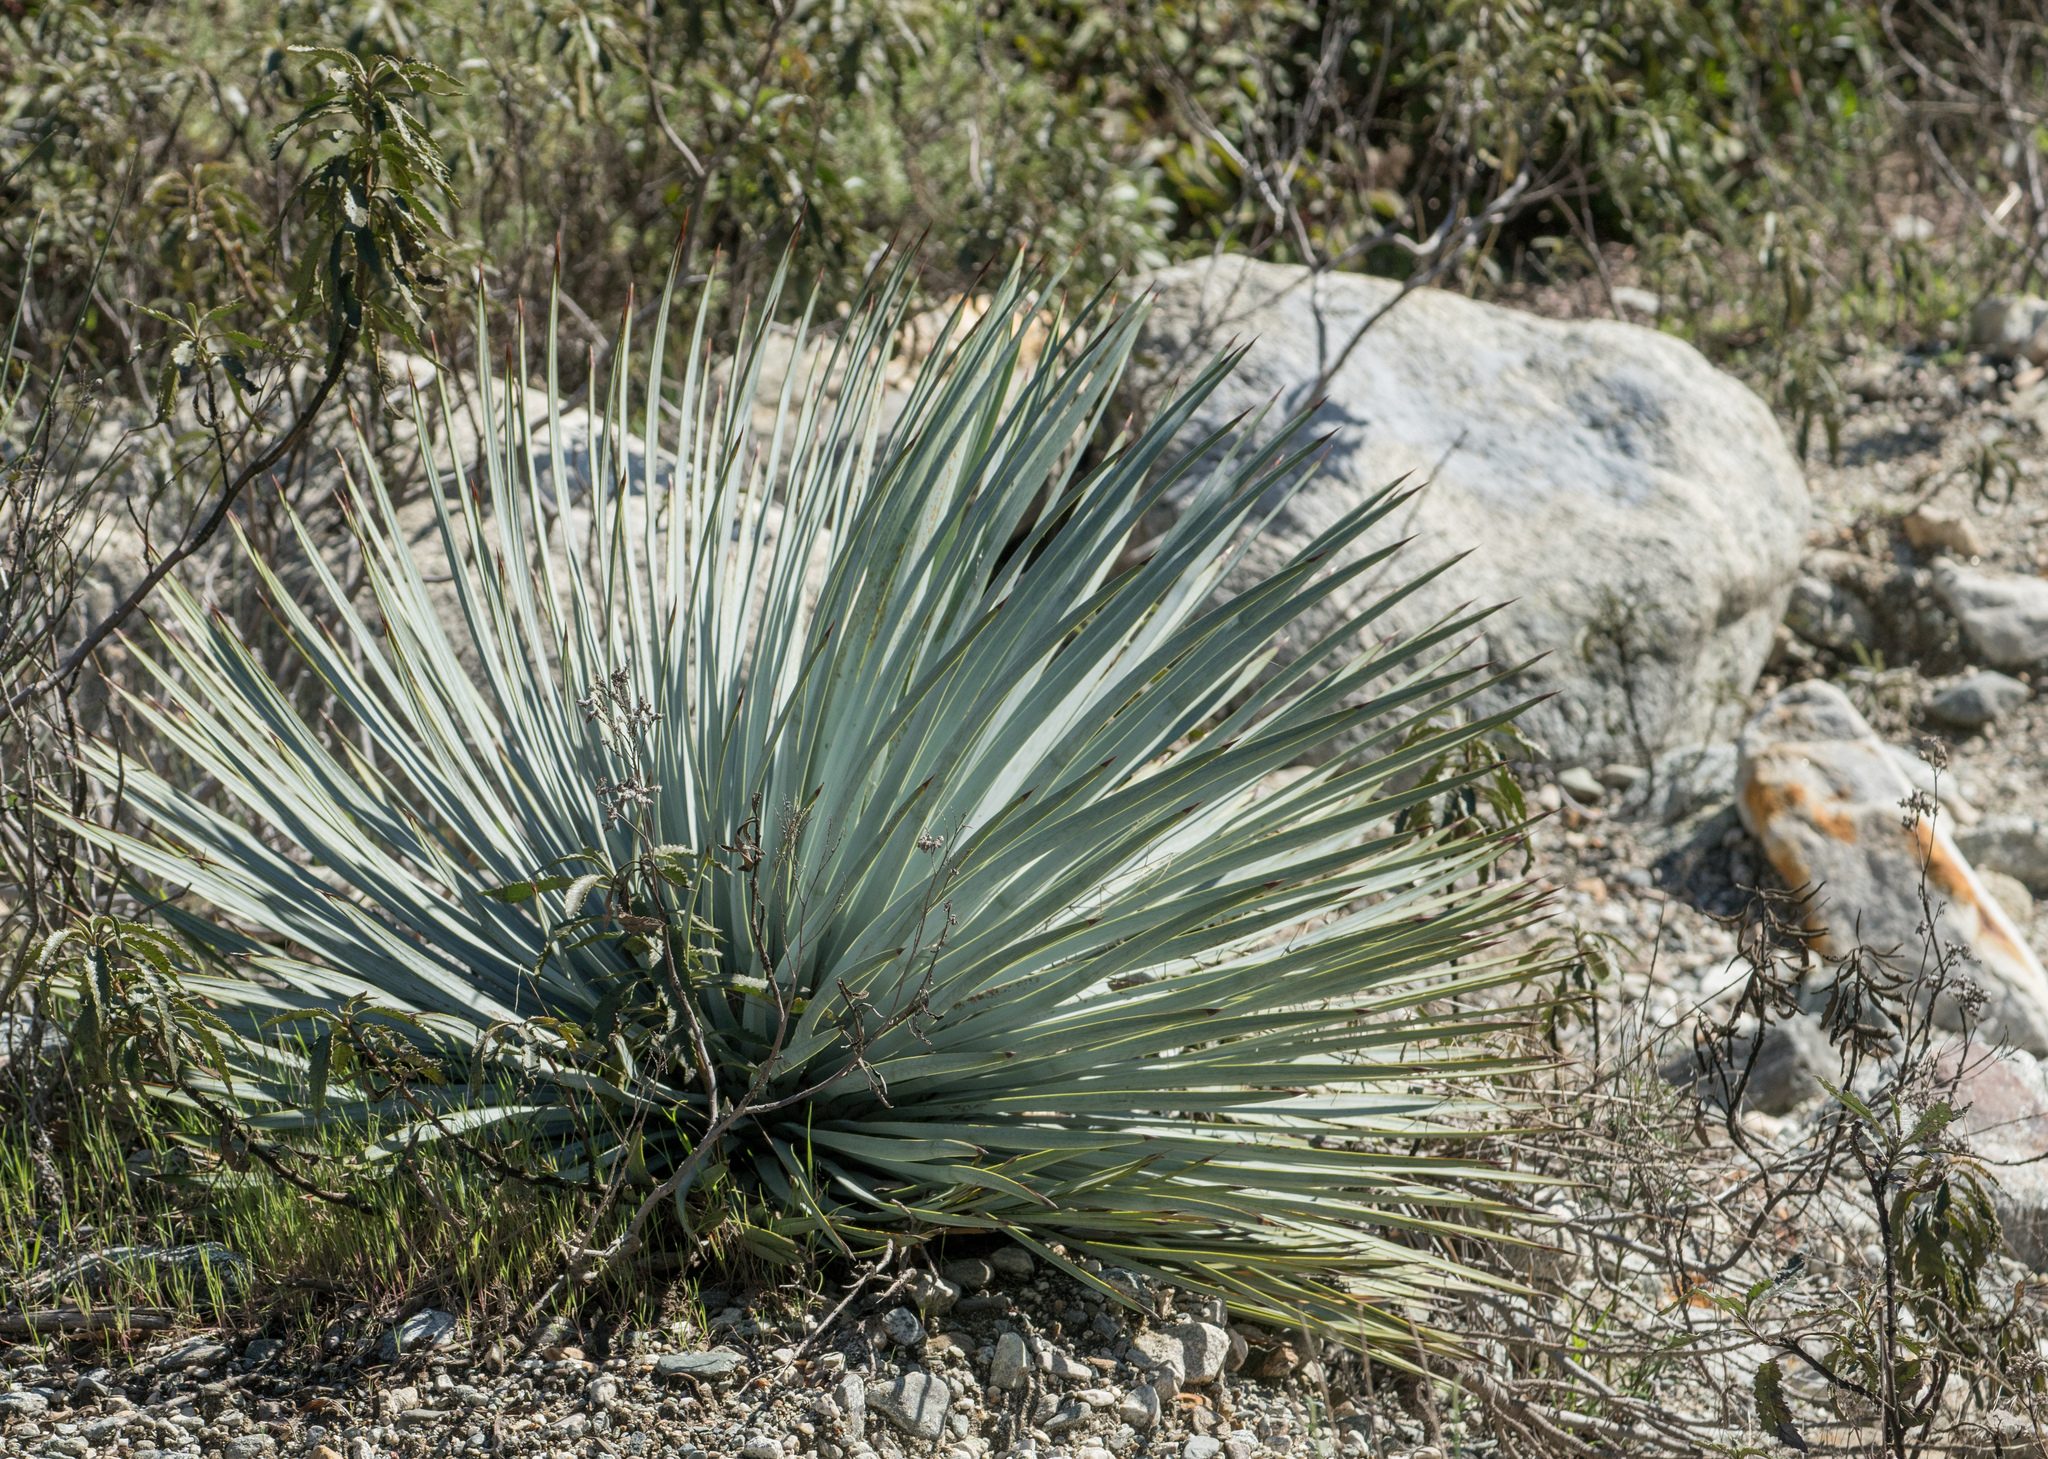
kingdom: Plantae
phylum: Tracheophyta
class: Liliopsida
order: Asparagales
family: Asparagaceae
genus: Hesperoyucca
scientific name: Hesperoyucca whipplei
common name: Our lord's-candle
